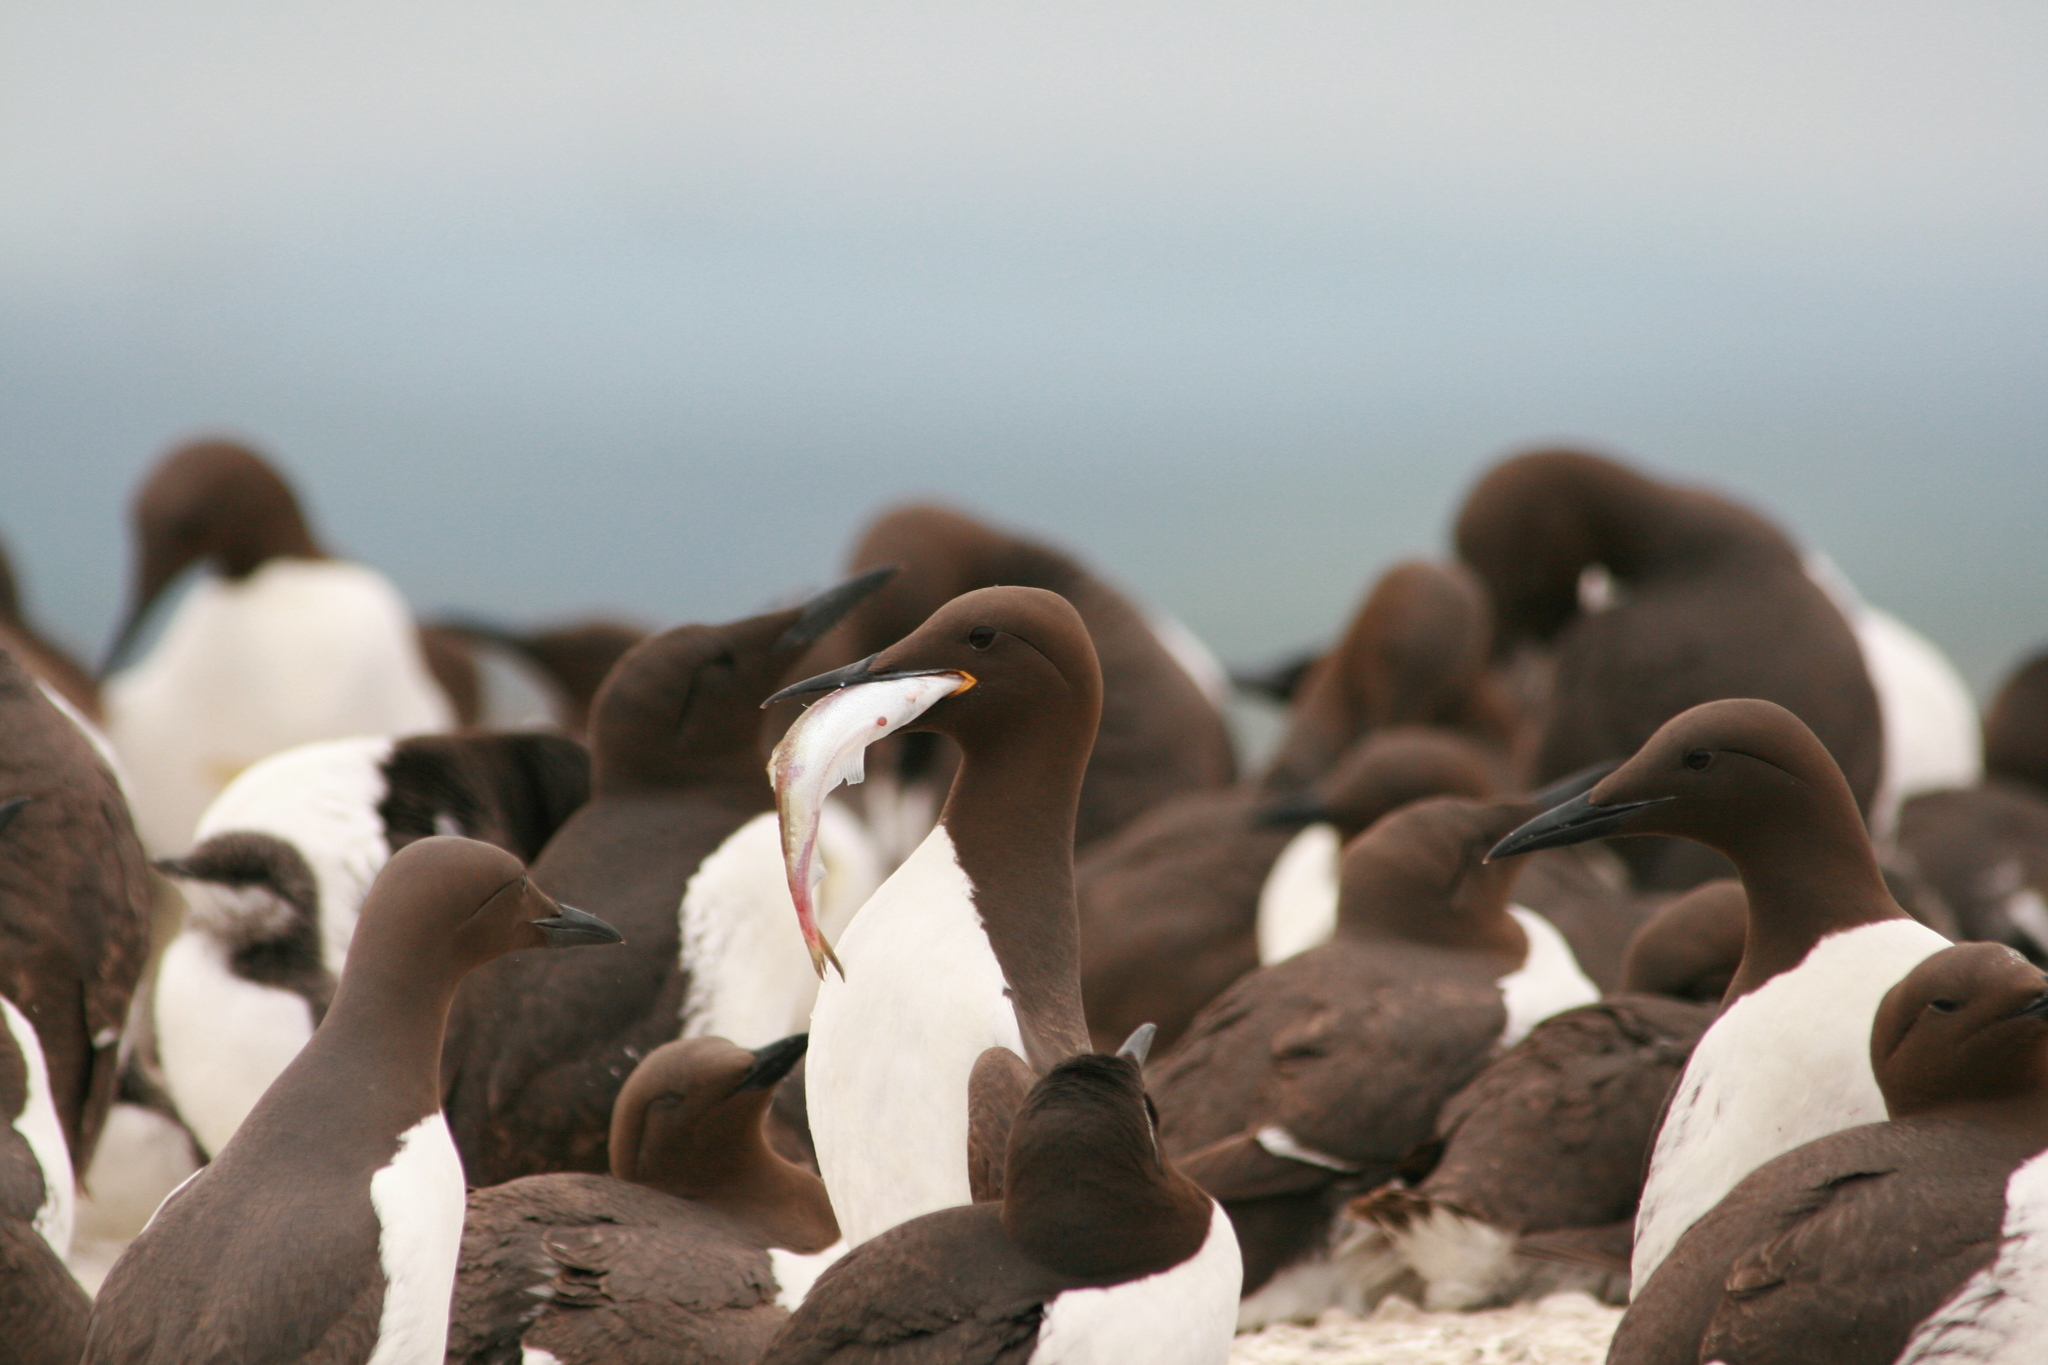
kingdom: Animalia
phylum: Chordata
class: Aves
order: Charadriiformes
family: Alcidae
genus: Uria
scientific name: Uria aalge
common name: Common murre
